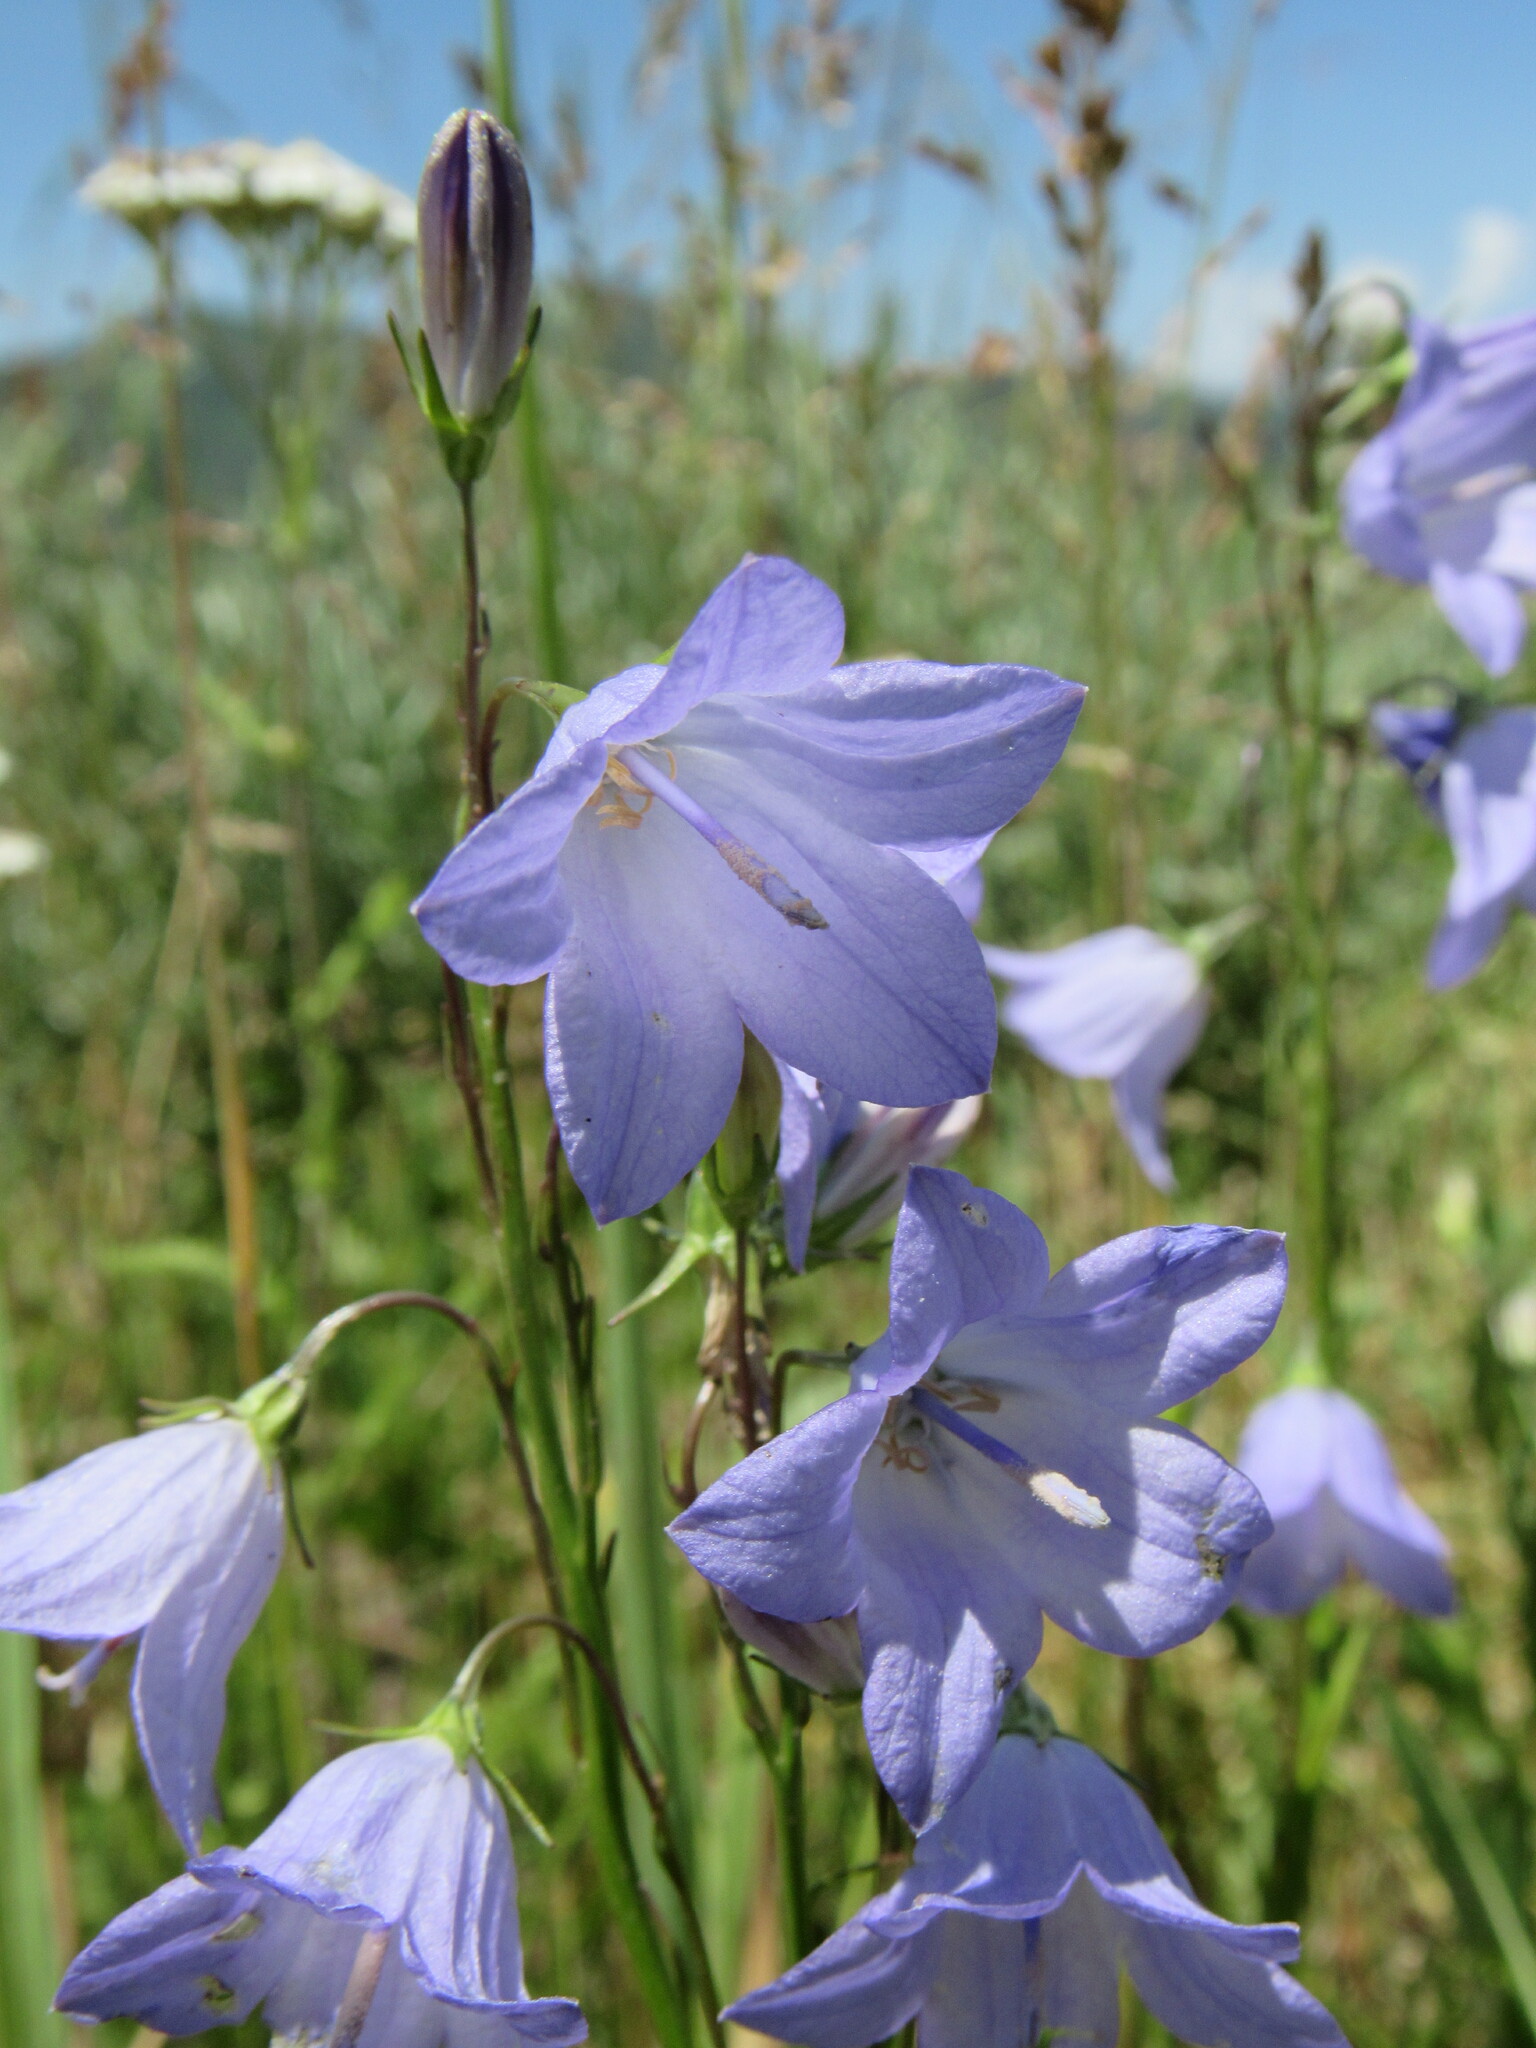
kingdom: Plantae
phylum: Tracheophyta
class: Magnoliopsida
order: Asterales
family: Campanulaceae
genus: Campanula
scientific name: Campanula petiolata
